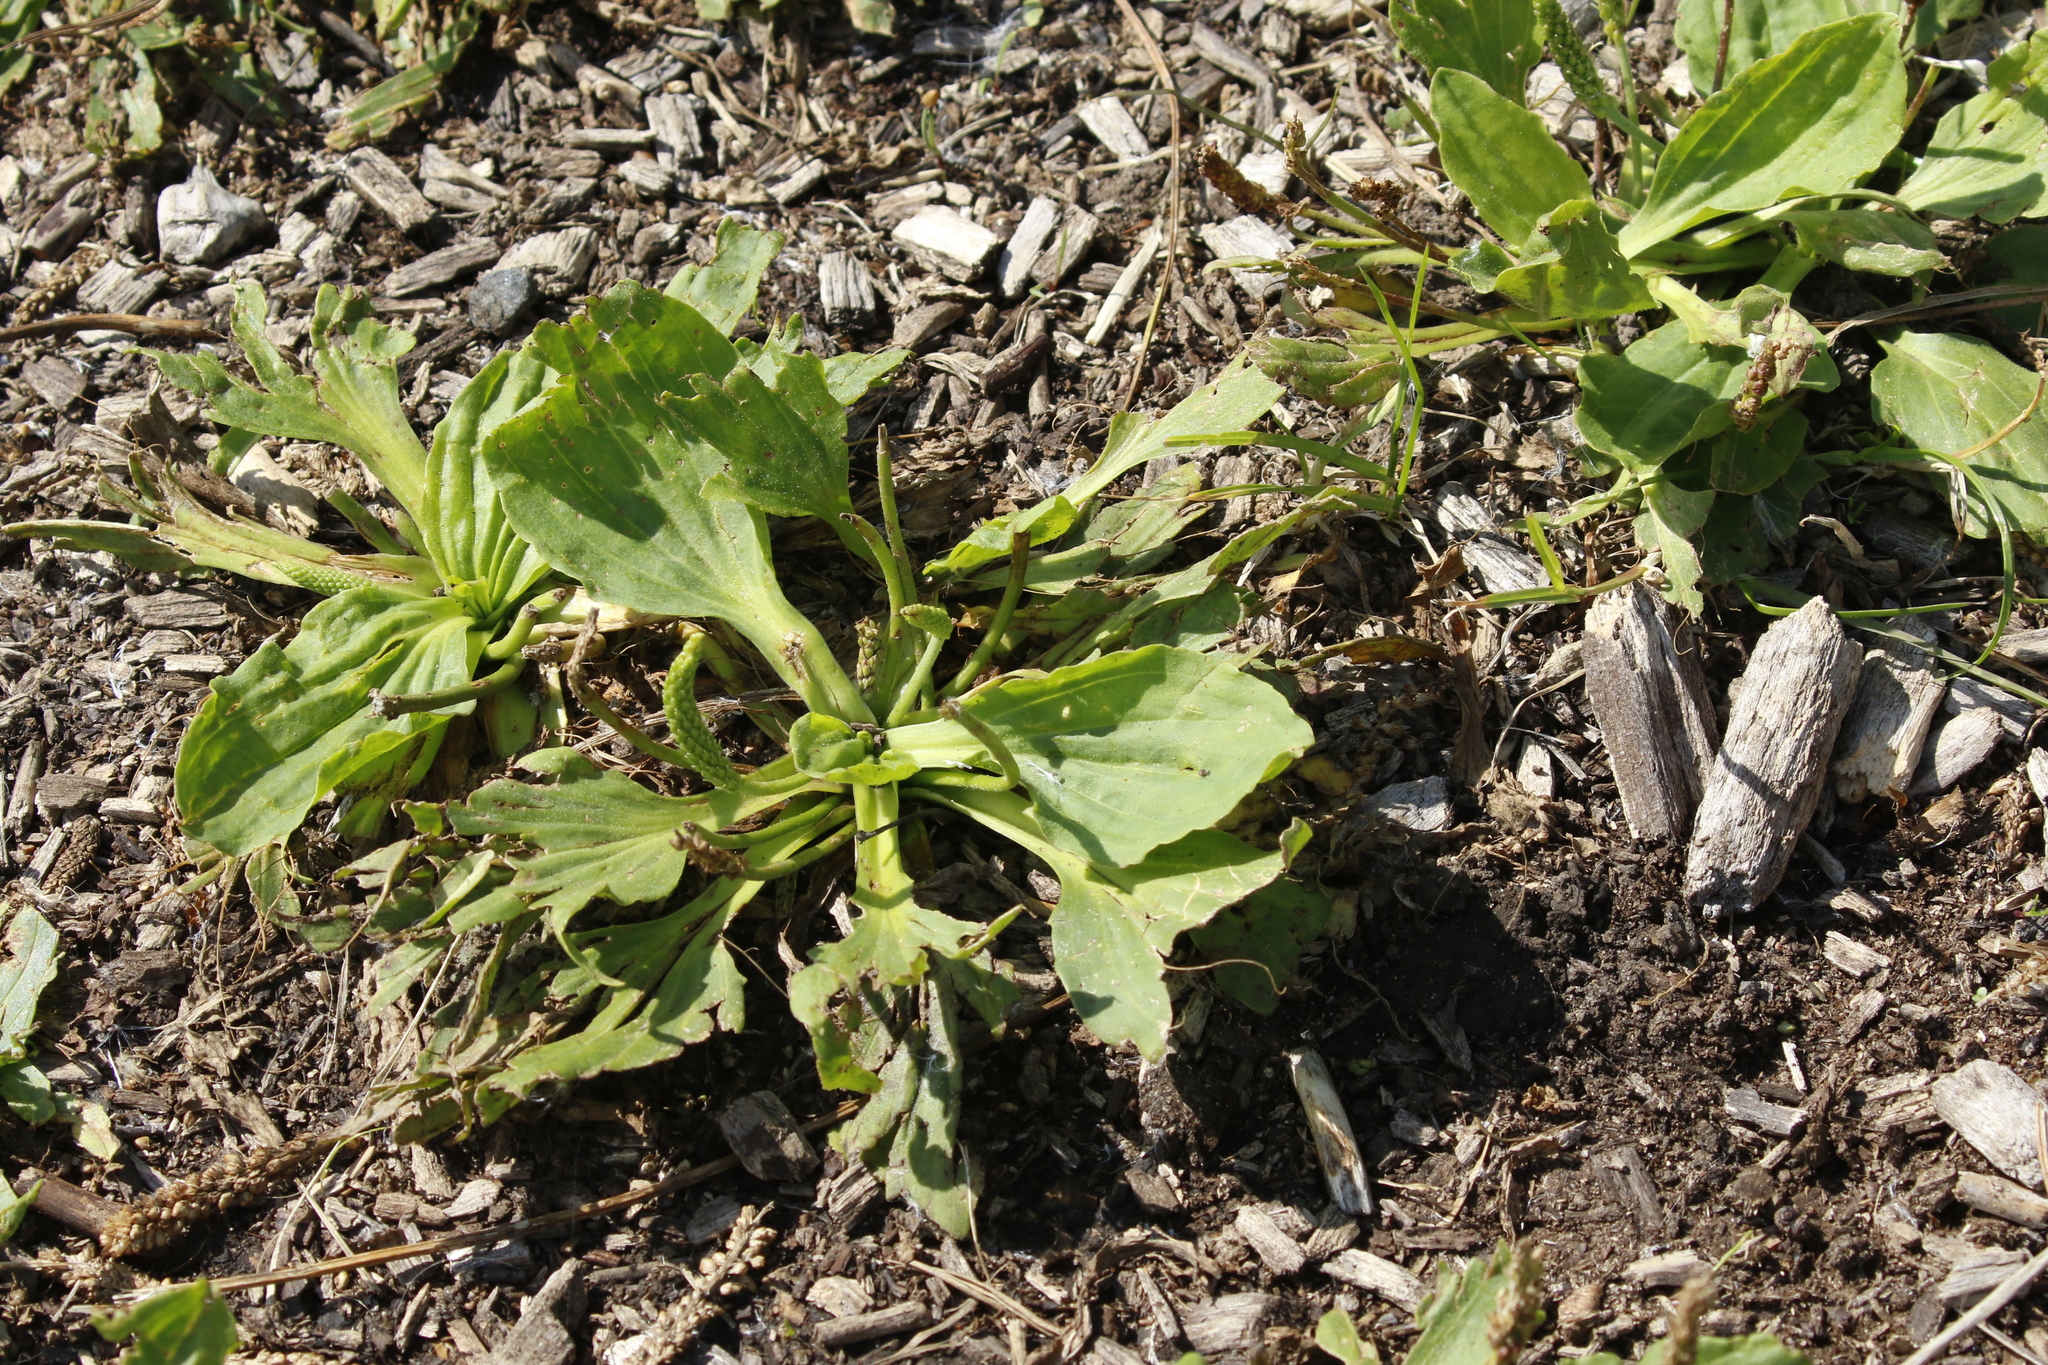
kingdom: Plantae
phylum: Tracheophyta
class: Magnoliopsida
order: Lamiales
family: Plantaginaceae
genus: Plantago
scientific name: Plantago major
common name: Common plantain
